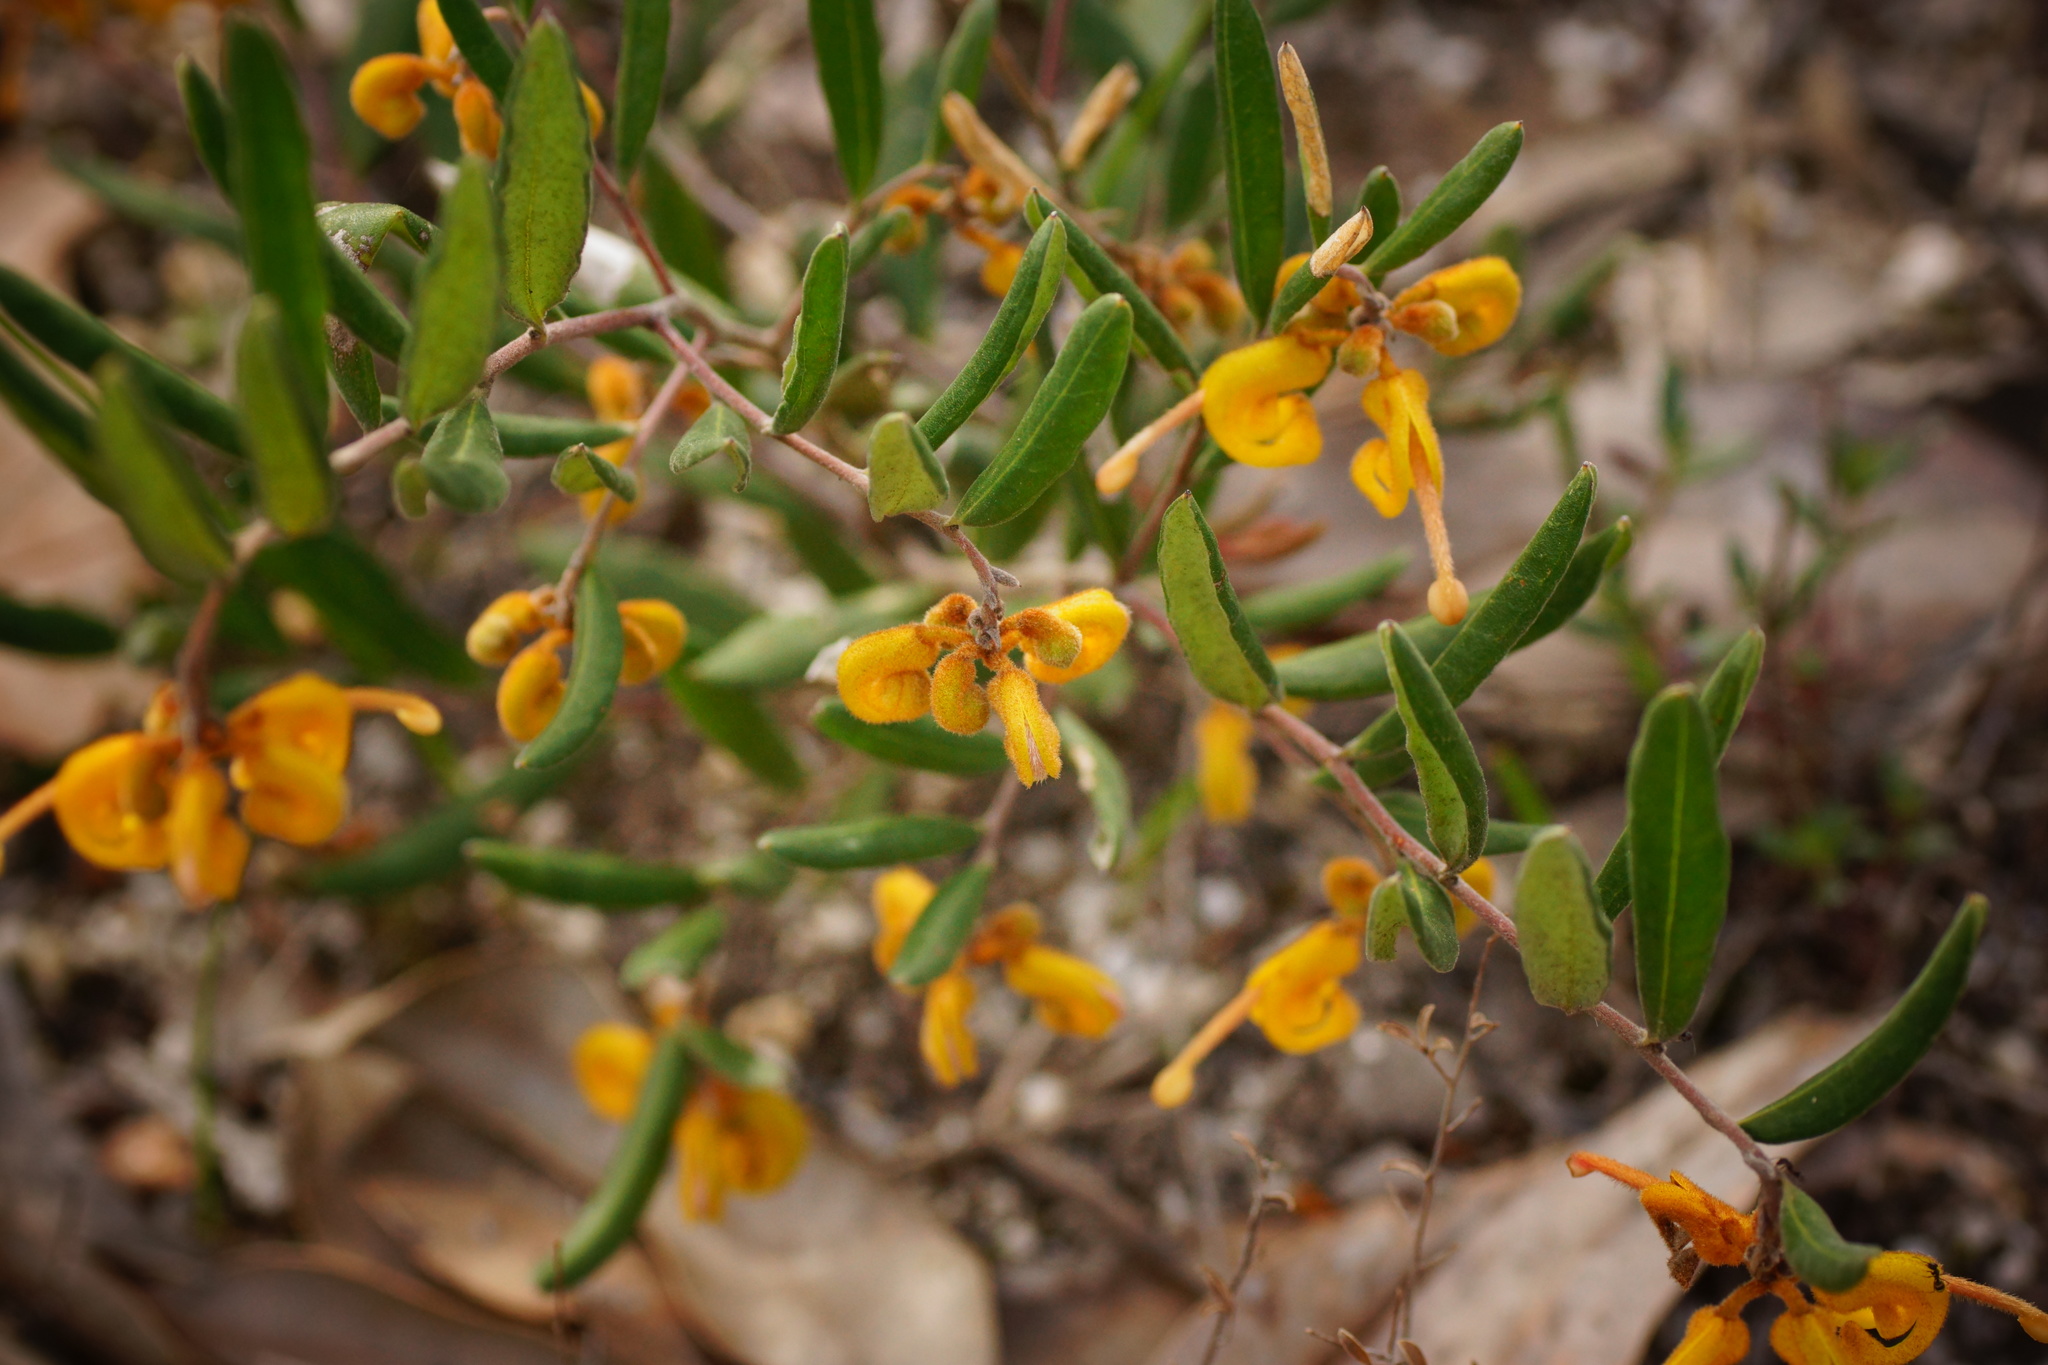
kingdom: Plantae
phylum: Tracheophyta
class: Magnoliopsida
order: Proteales
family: Proteaceae
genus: Grevillea
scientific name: Grevillea chrysophaea
